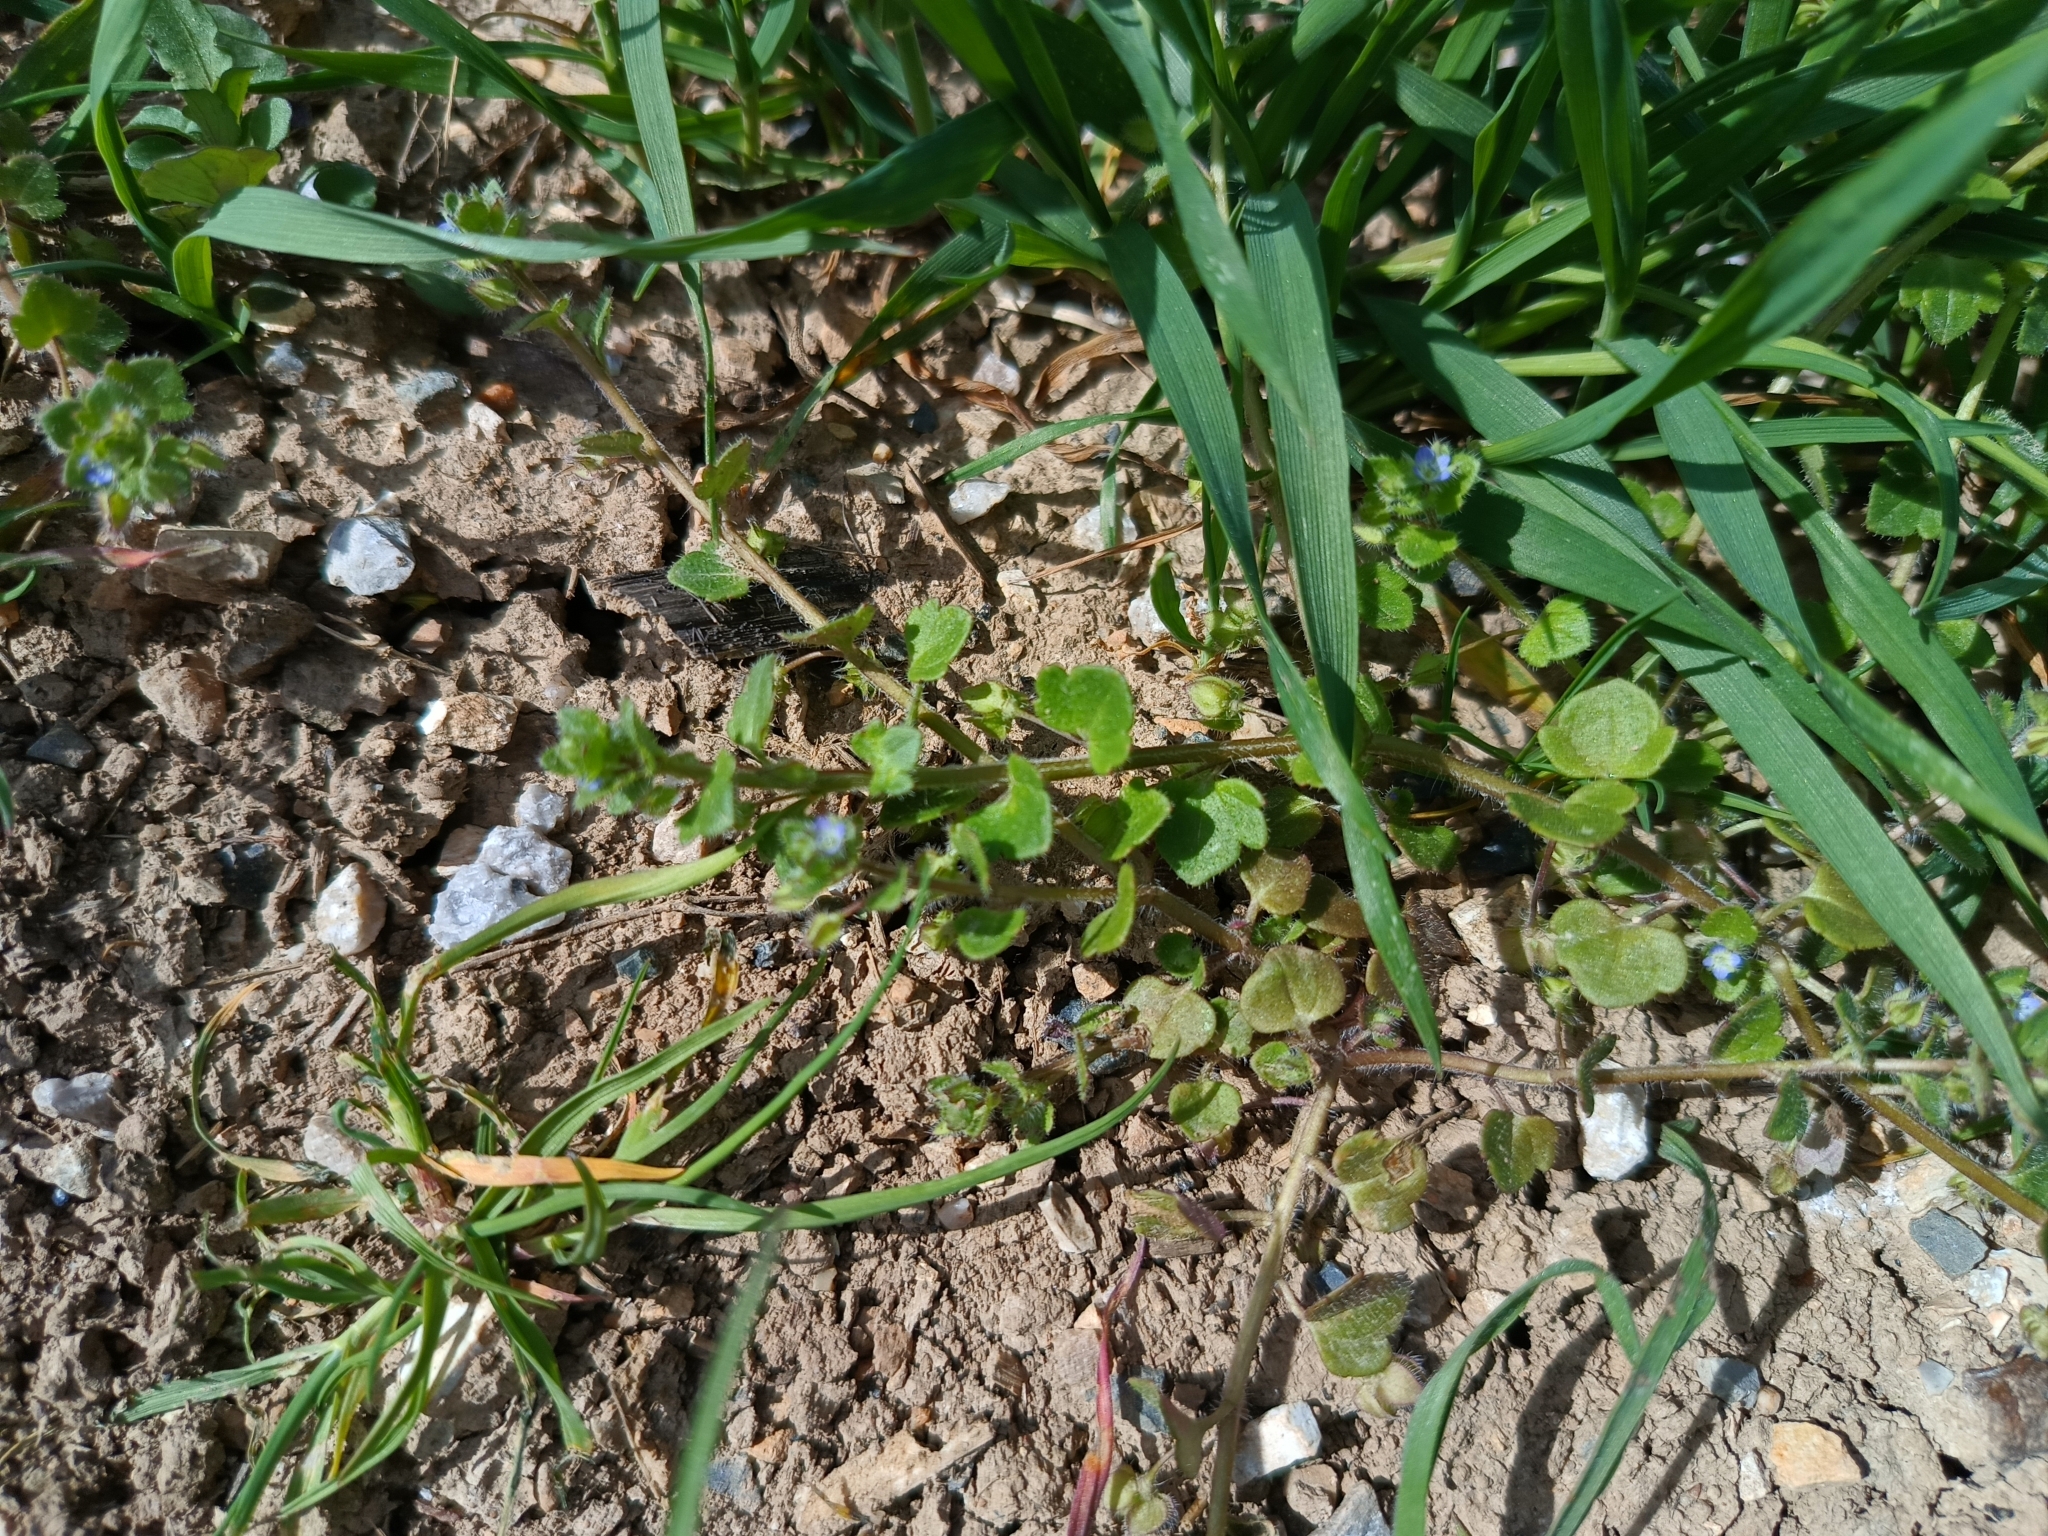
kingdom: Plantae
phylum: Tracheophyta
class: Magnoliopsida
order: Lamiales
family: Plantaginaceae
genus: Veronica
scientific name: Veronica hederifolia
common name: Ivy-leaved speedwell
